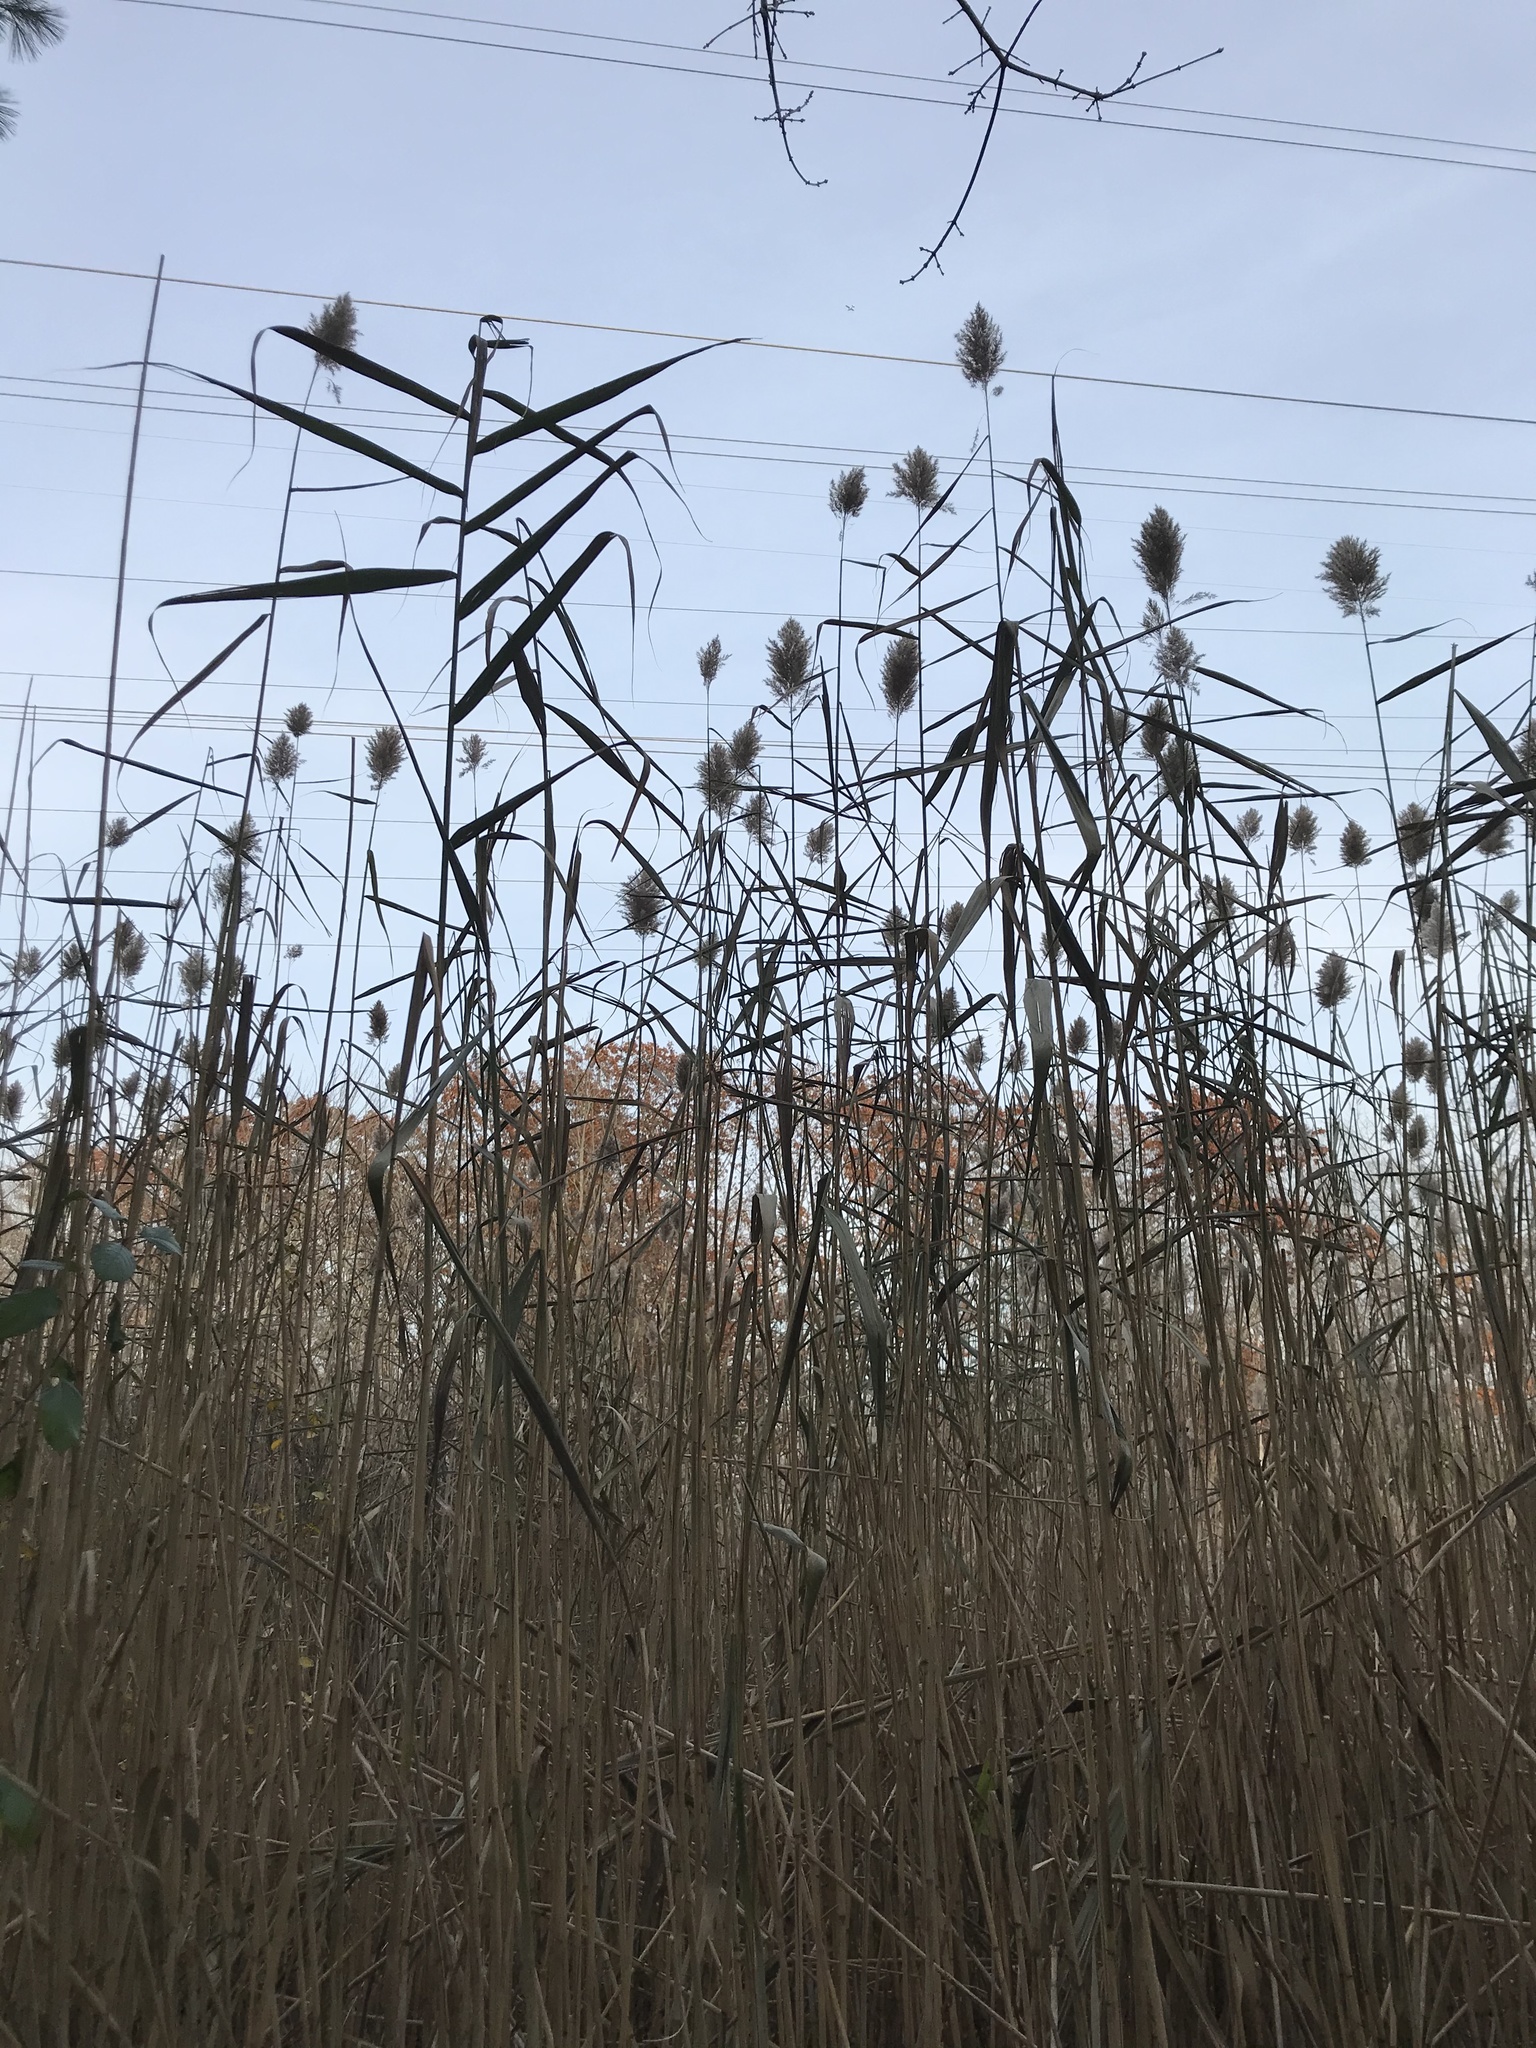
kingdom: Plantae
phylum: Tracheophyta
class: Liliopsida
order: Poales
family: Poaceae
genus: Phragmites
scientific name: Phragmites australis
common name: Common reed
